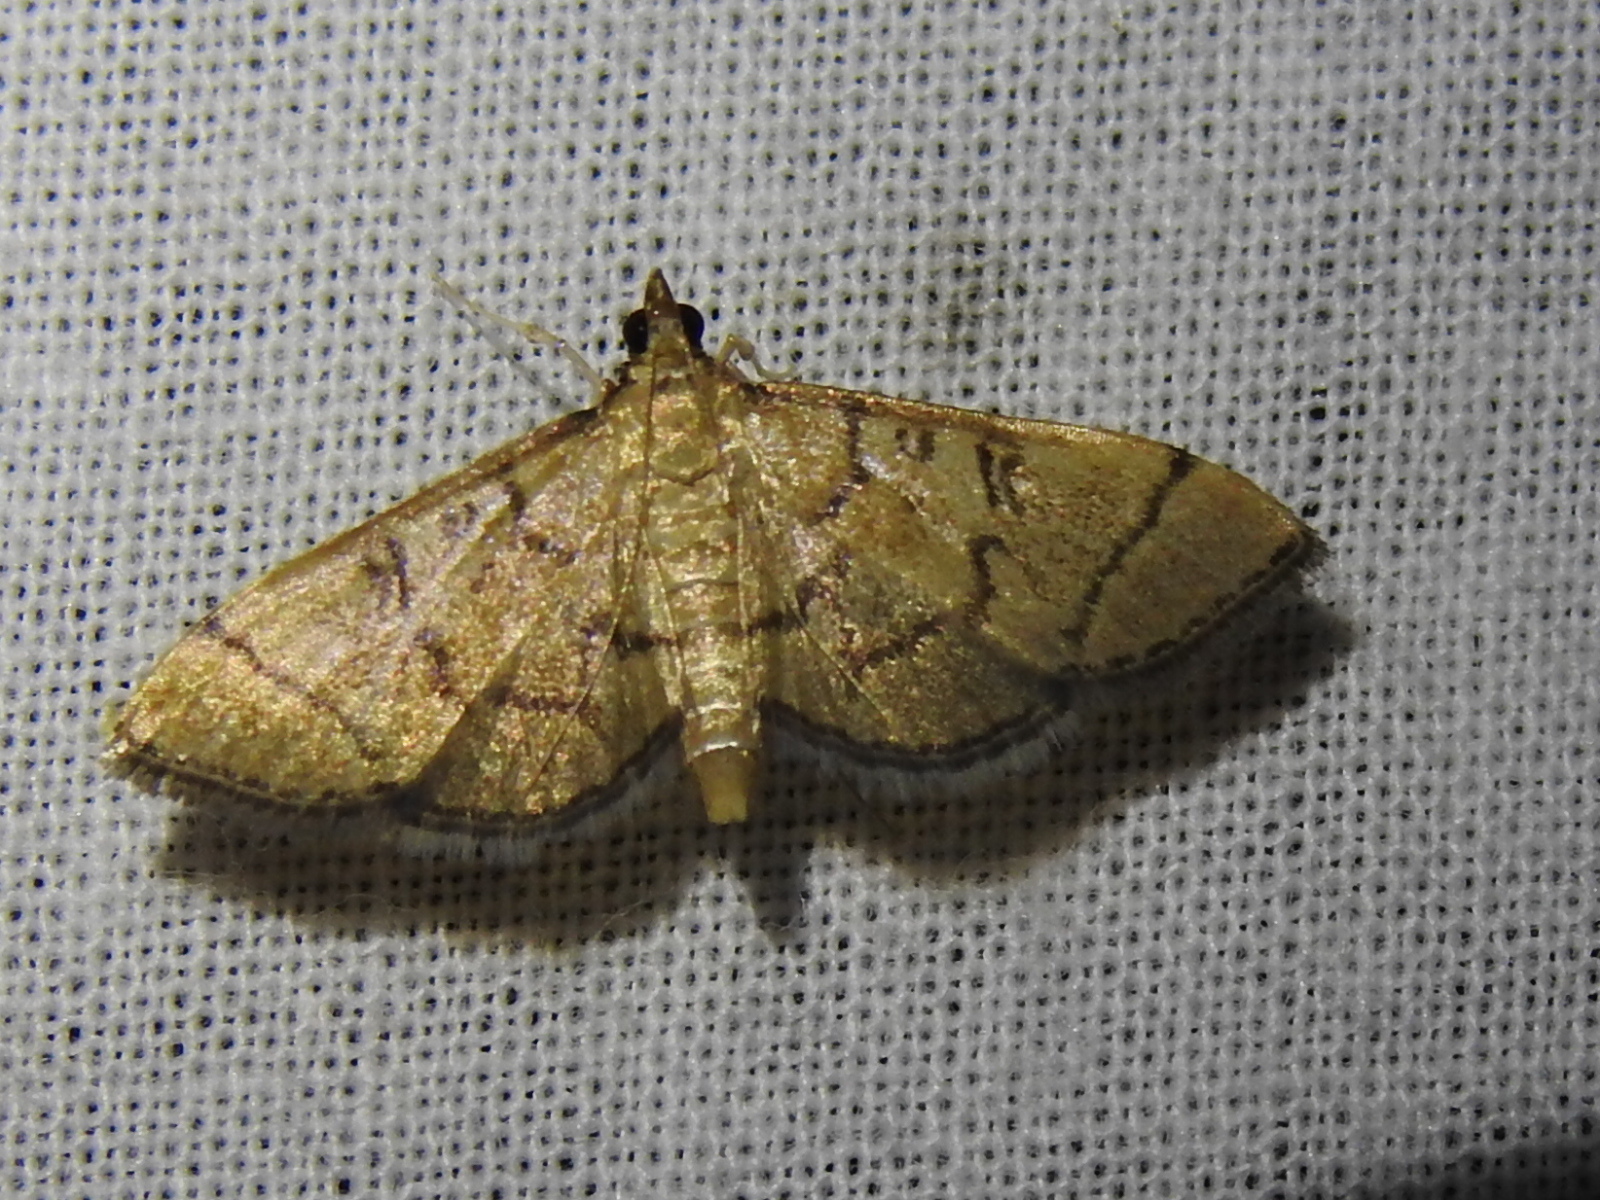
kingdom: Animalia
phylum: Arthropoda
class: Insecta
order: Lepidoptera
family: Crambidae
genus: Lamprosema
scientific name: Lamprosema Blepharomastix ranalis
